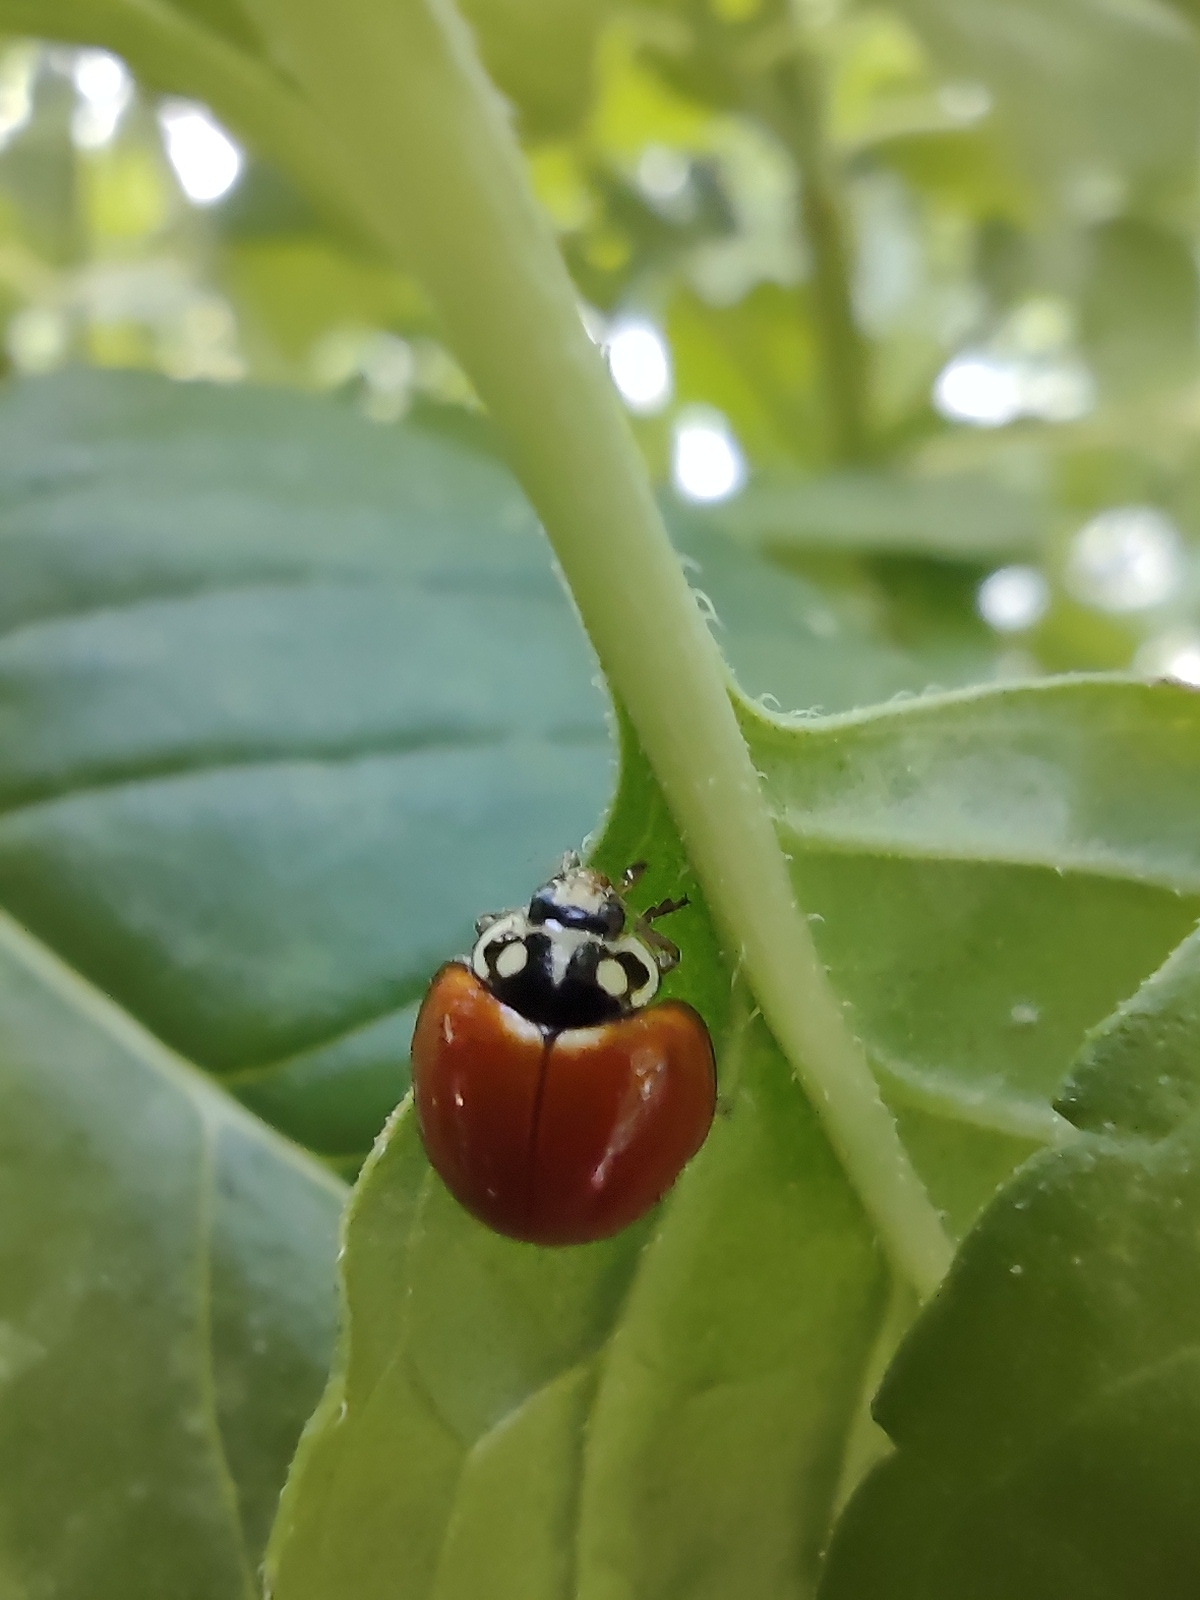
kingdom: Animalia
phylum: Arthropoda
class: Insecta
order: Coleoptera
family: Coccinellidae
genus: Cycloneda
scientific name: Cycloneda sanguinea
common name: Ladybird beetle
